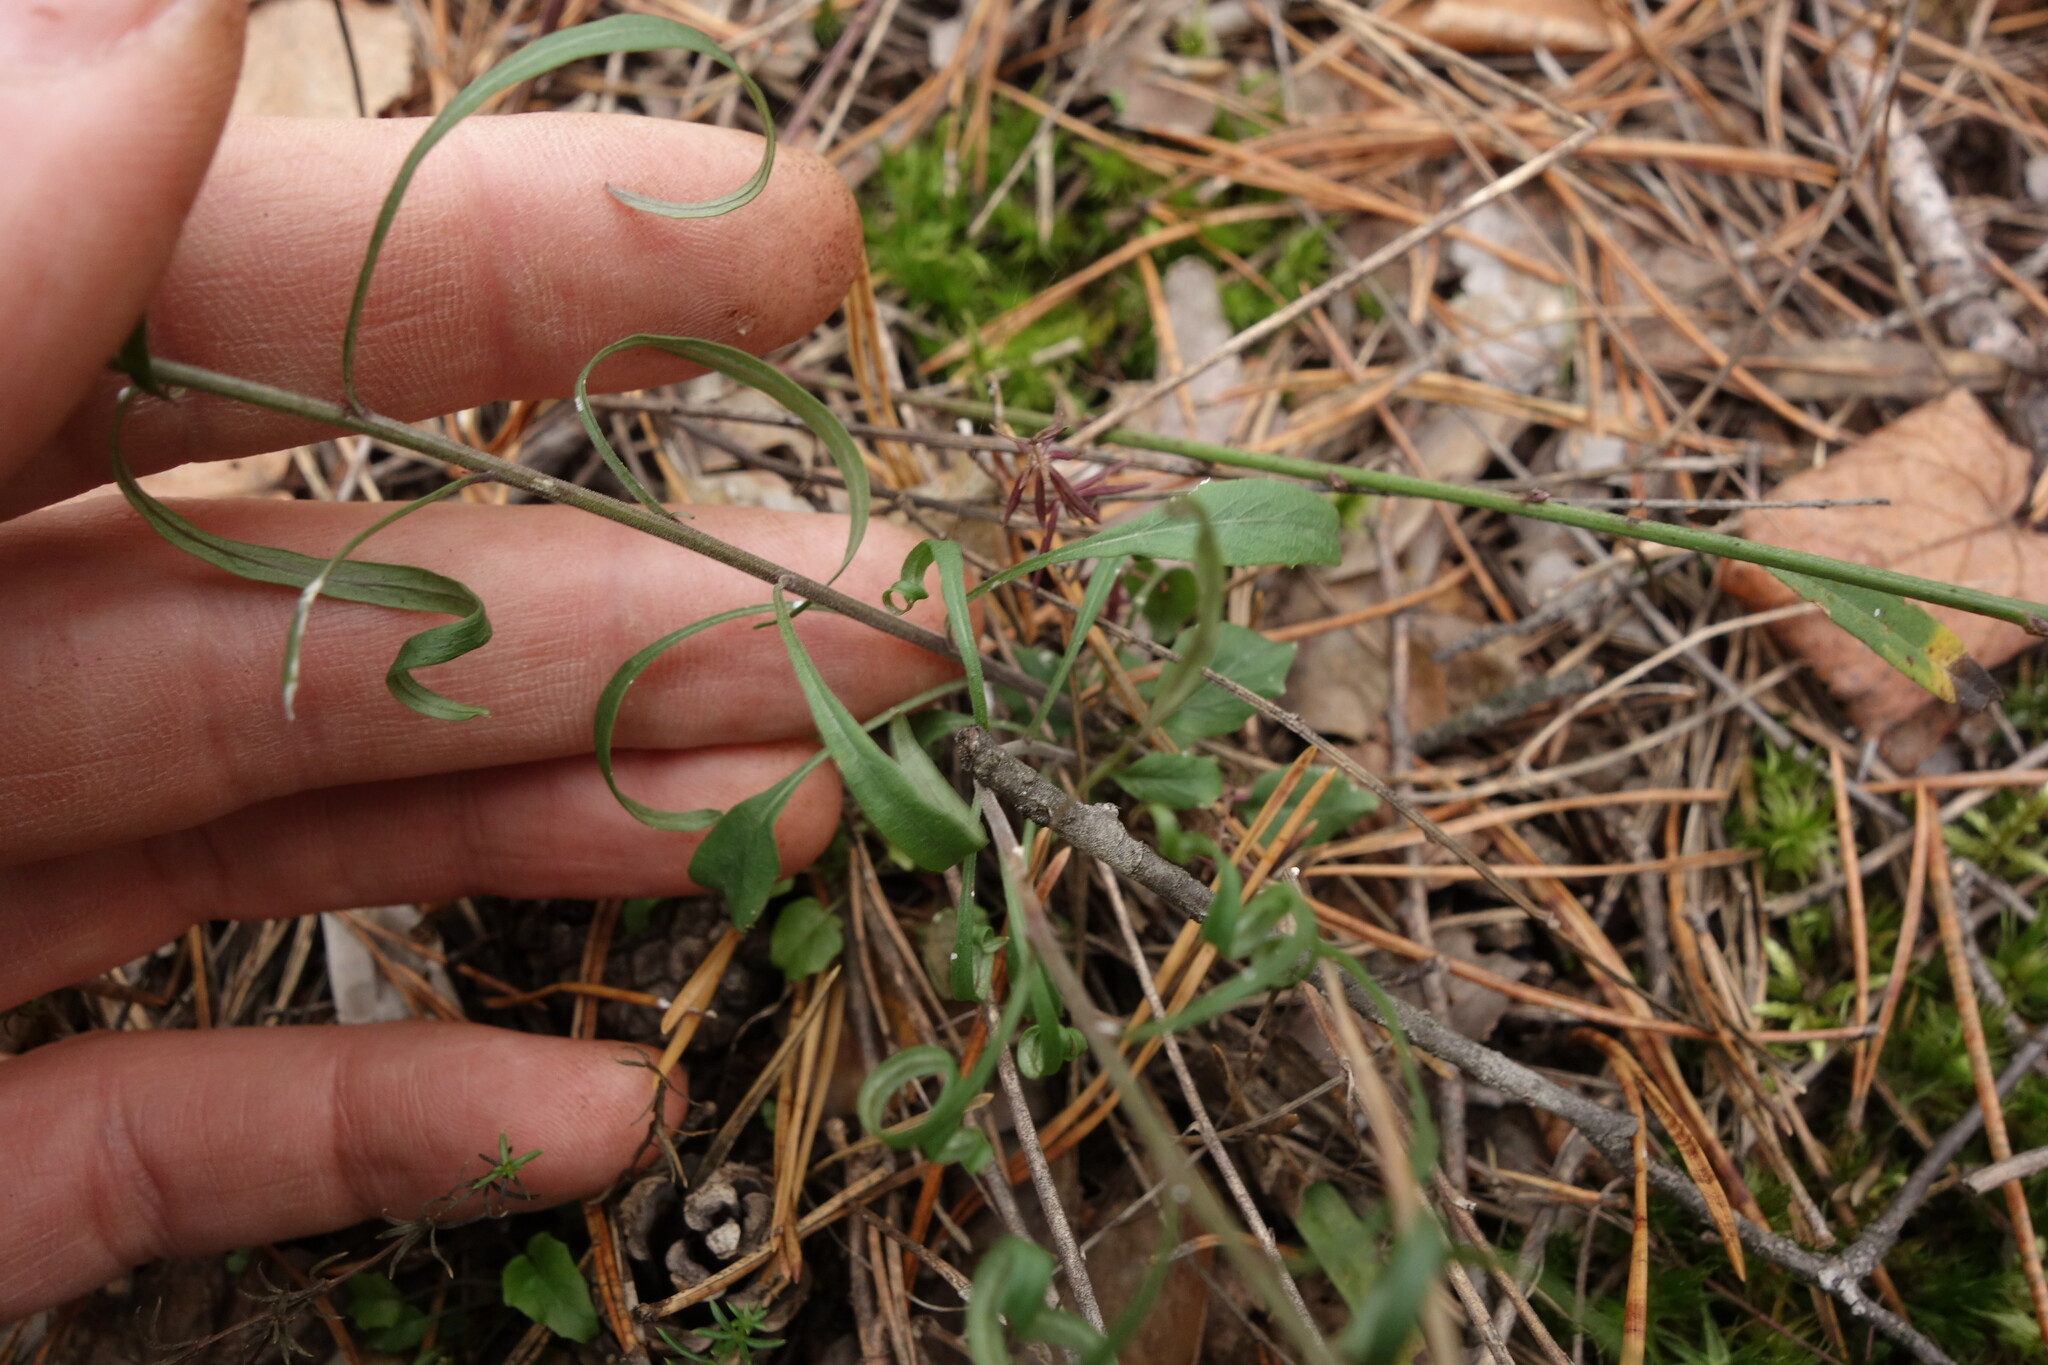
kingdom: Plantae
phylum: Tracheophyta
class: Magnoliopsida
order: Asterales
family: Campanulaceae
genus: Campanula
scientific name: Campanula rotundifolia
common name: Harebell
